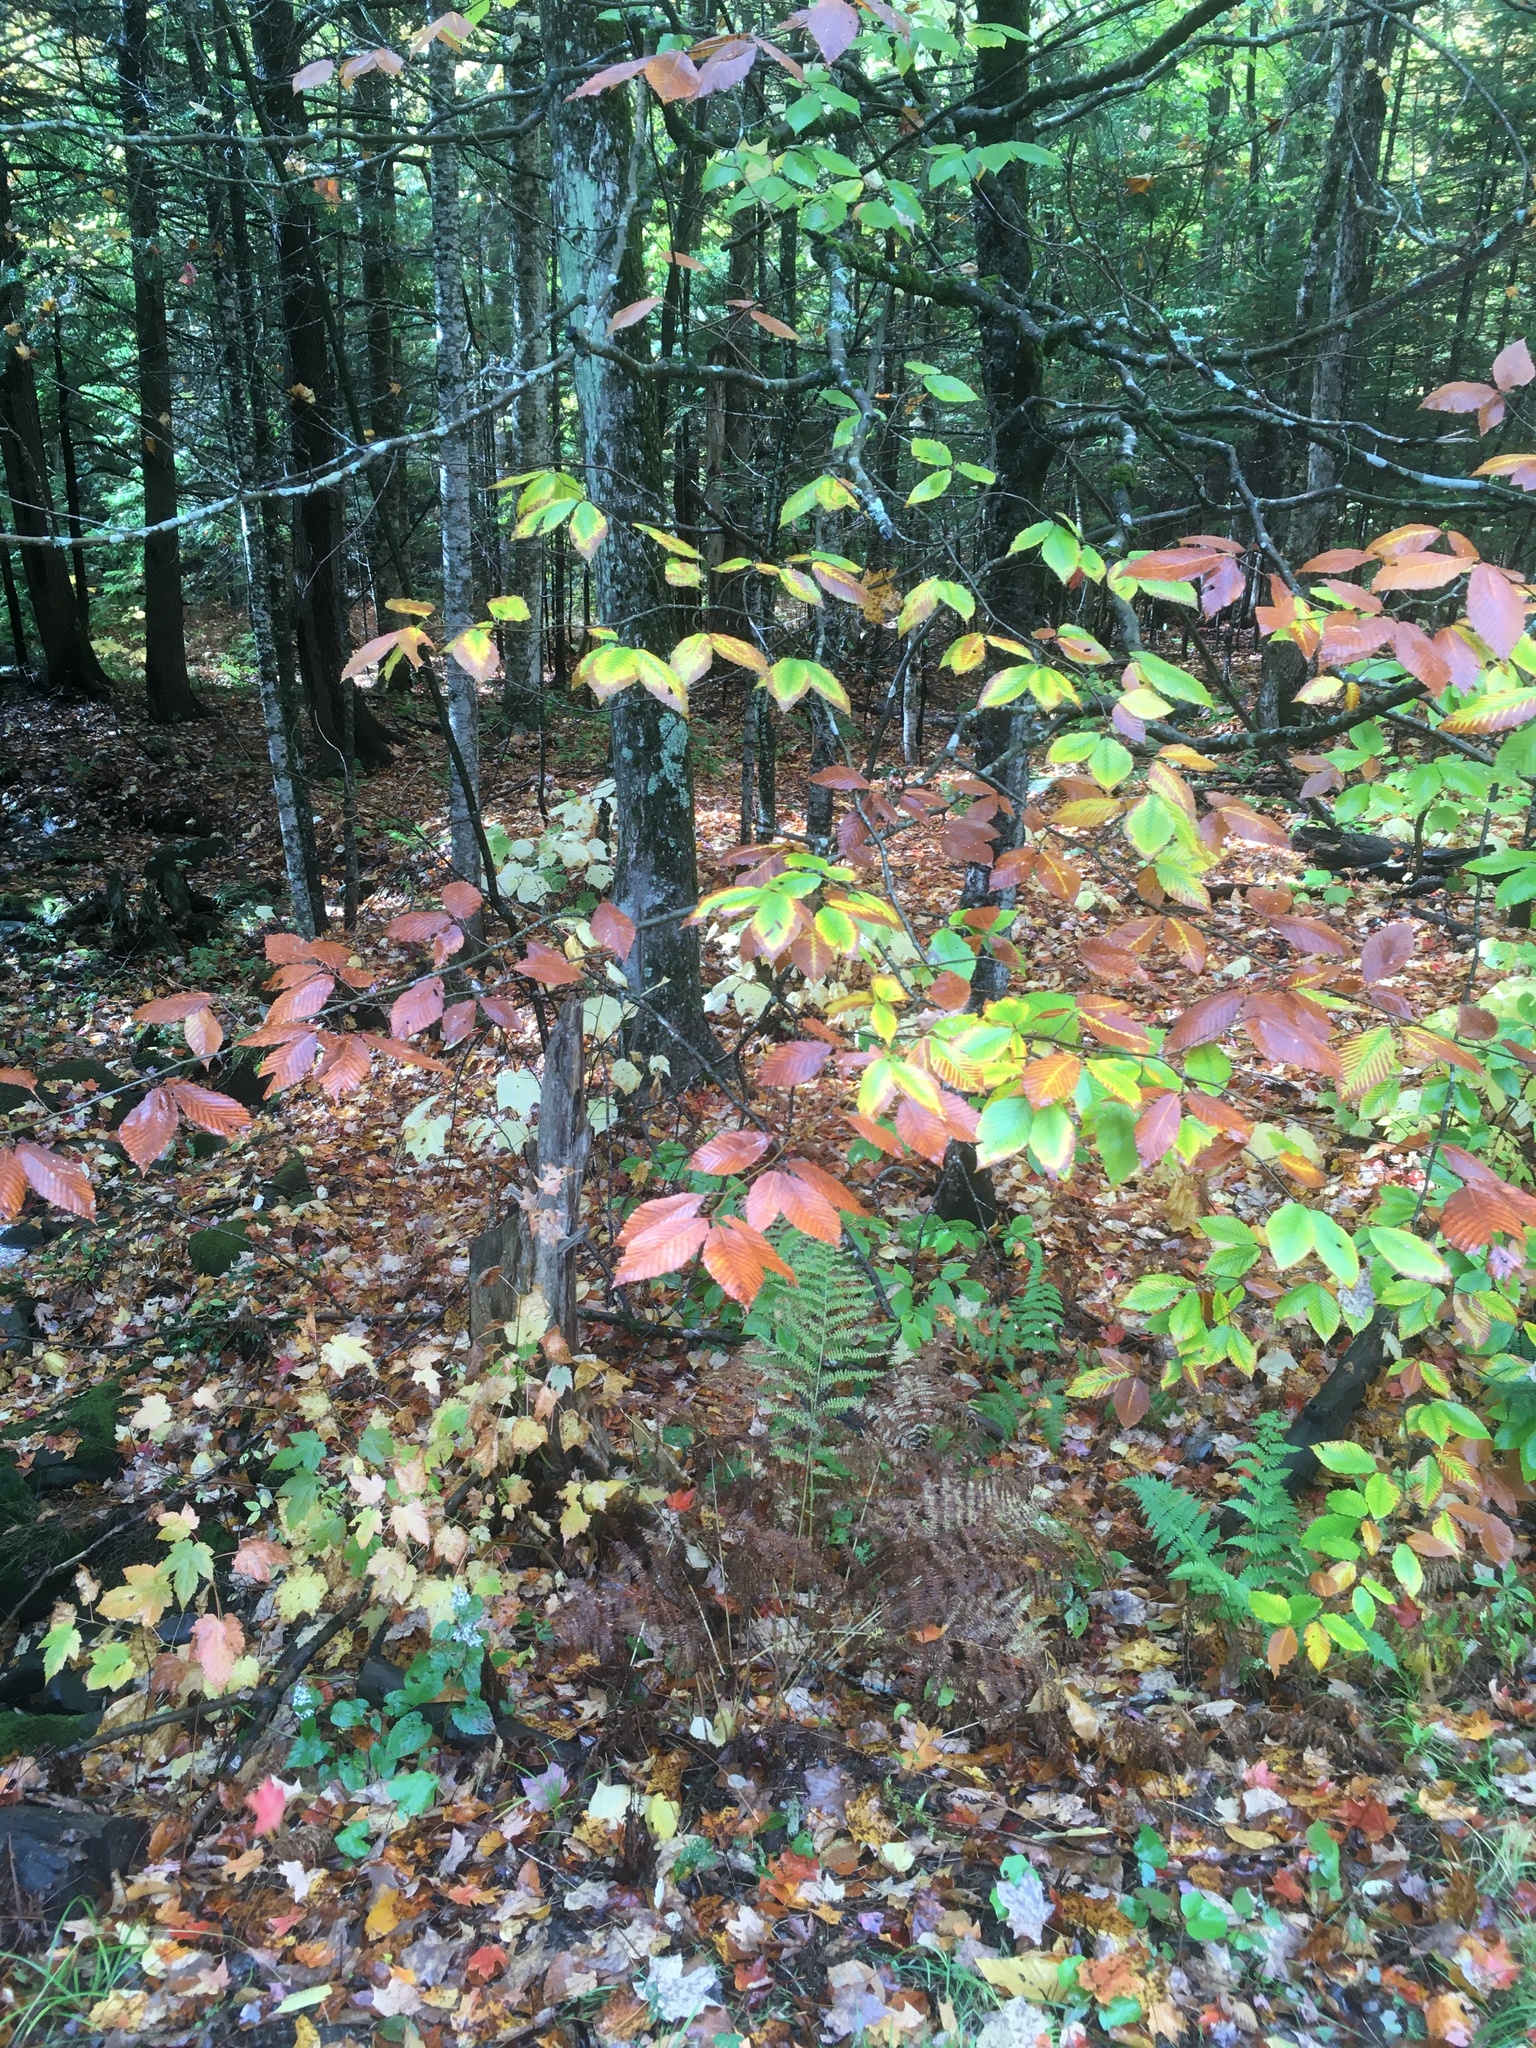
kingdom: Plantae
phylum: Tracheophyta
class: Magnoliopsida
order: Fagales
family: Fagaceae
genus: Fagus
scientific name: Fagus grandifolia
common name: American beech
